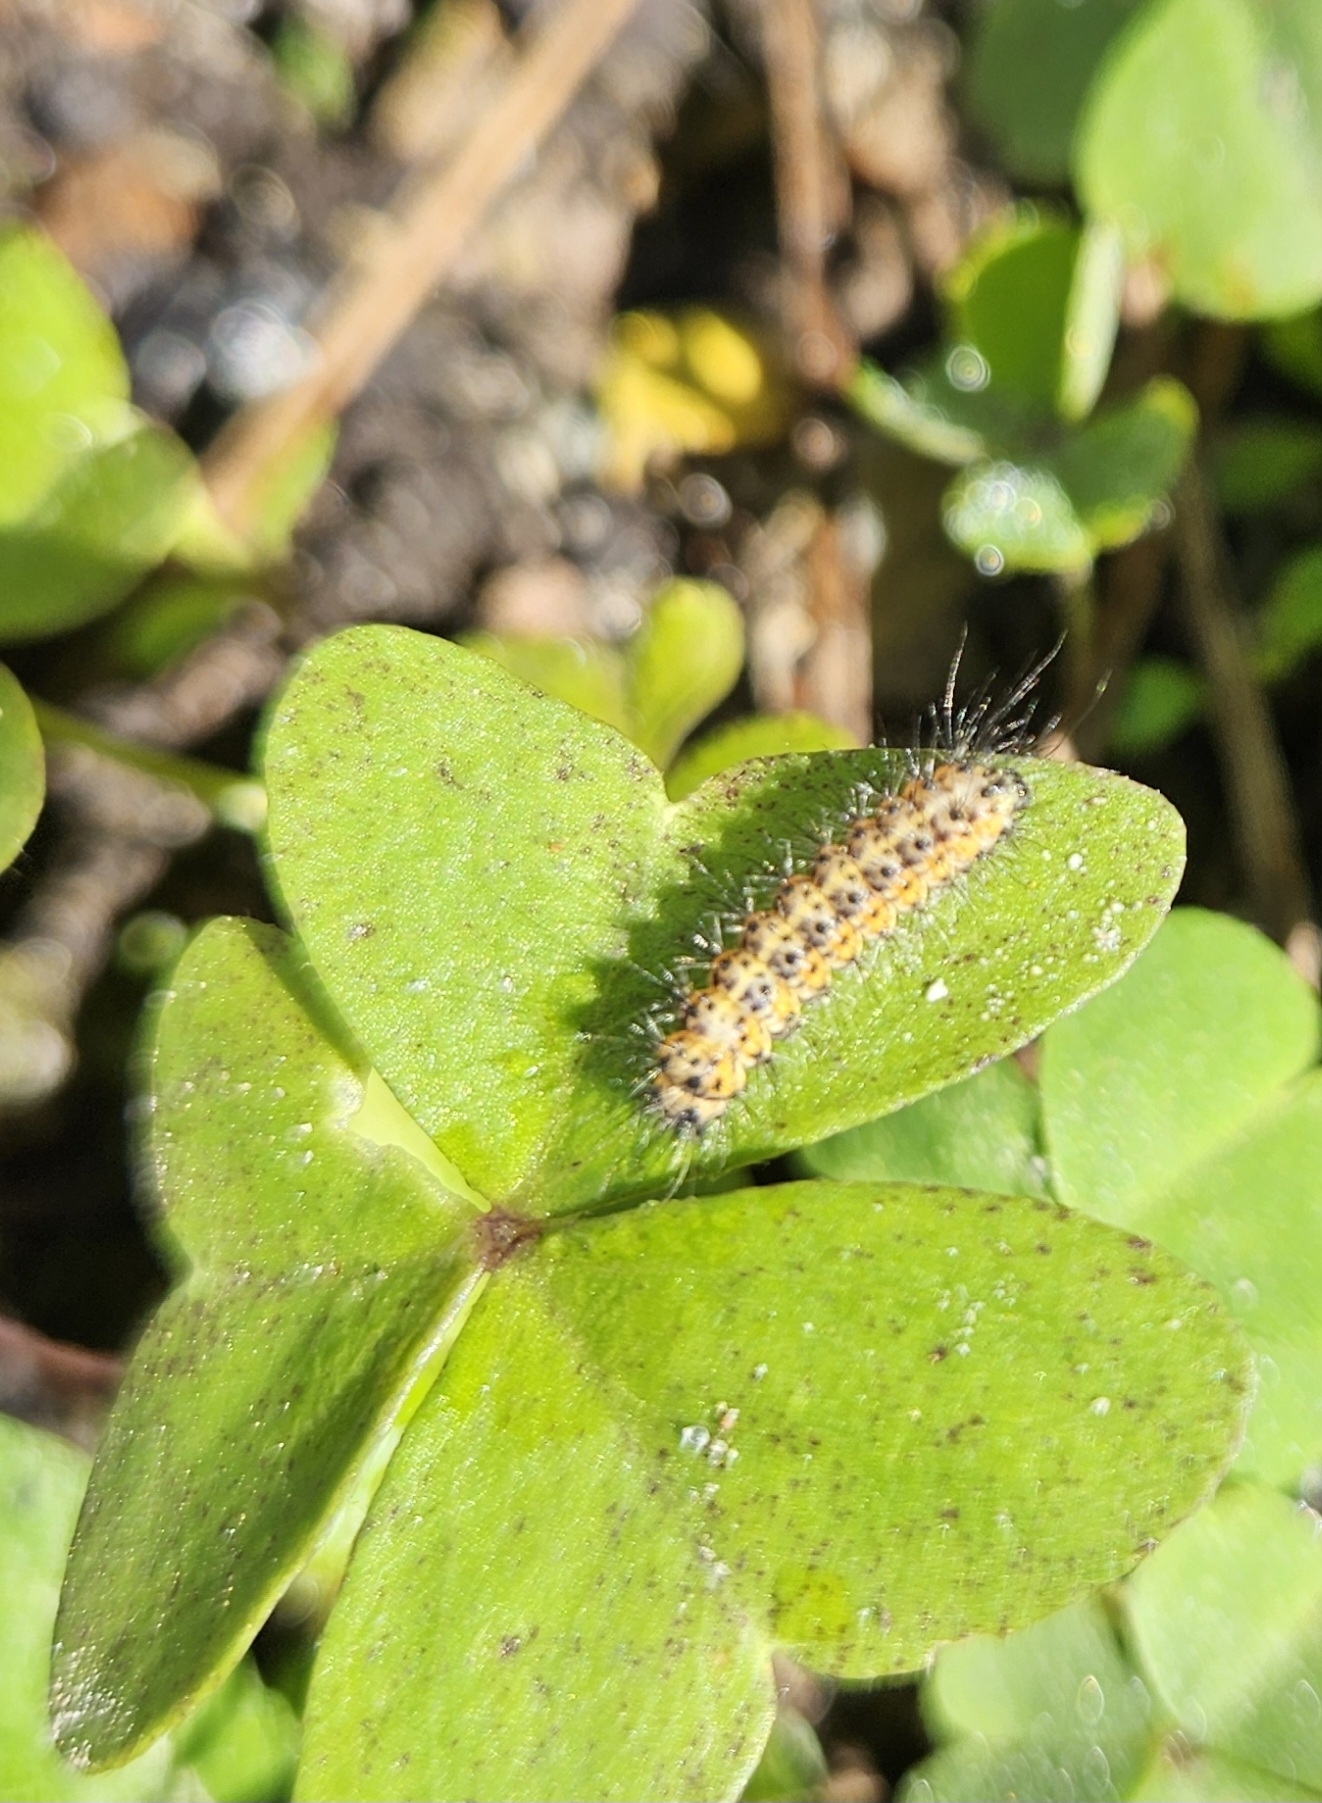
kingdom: Animalia
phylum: Arthropoda
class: Insecta
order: Lepidoptera
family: Erebidae
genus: Spilosoma
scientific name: Spilosoma dubia
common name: Dubious tiger moth
